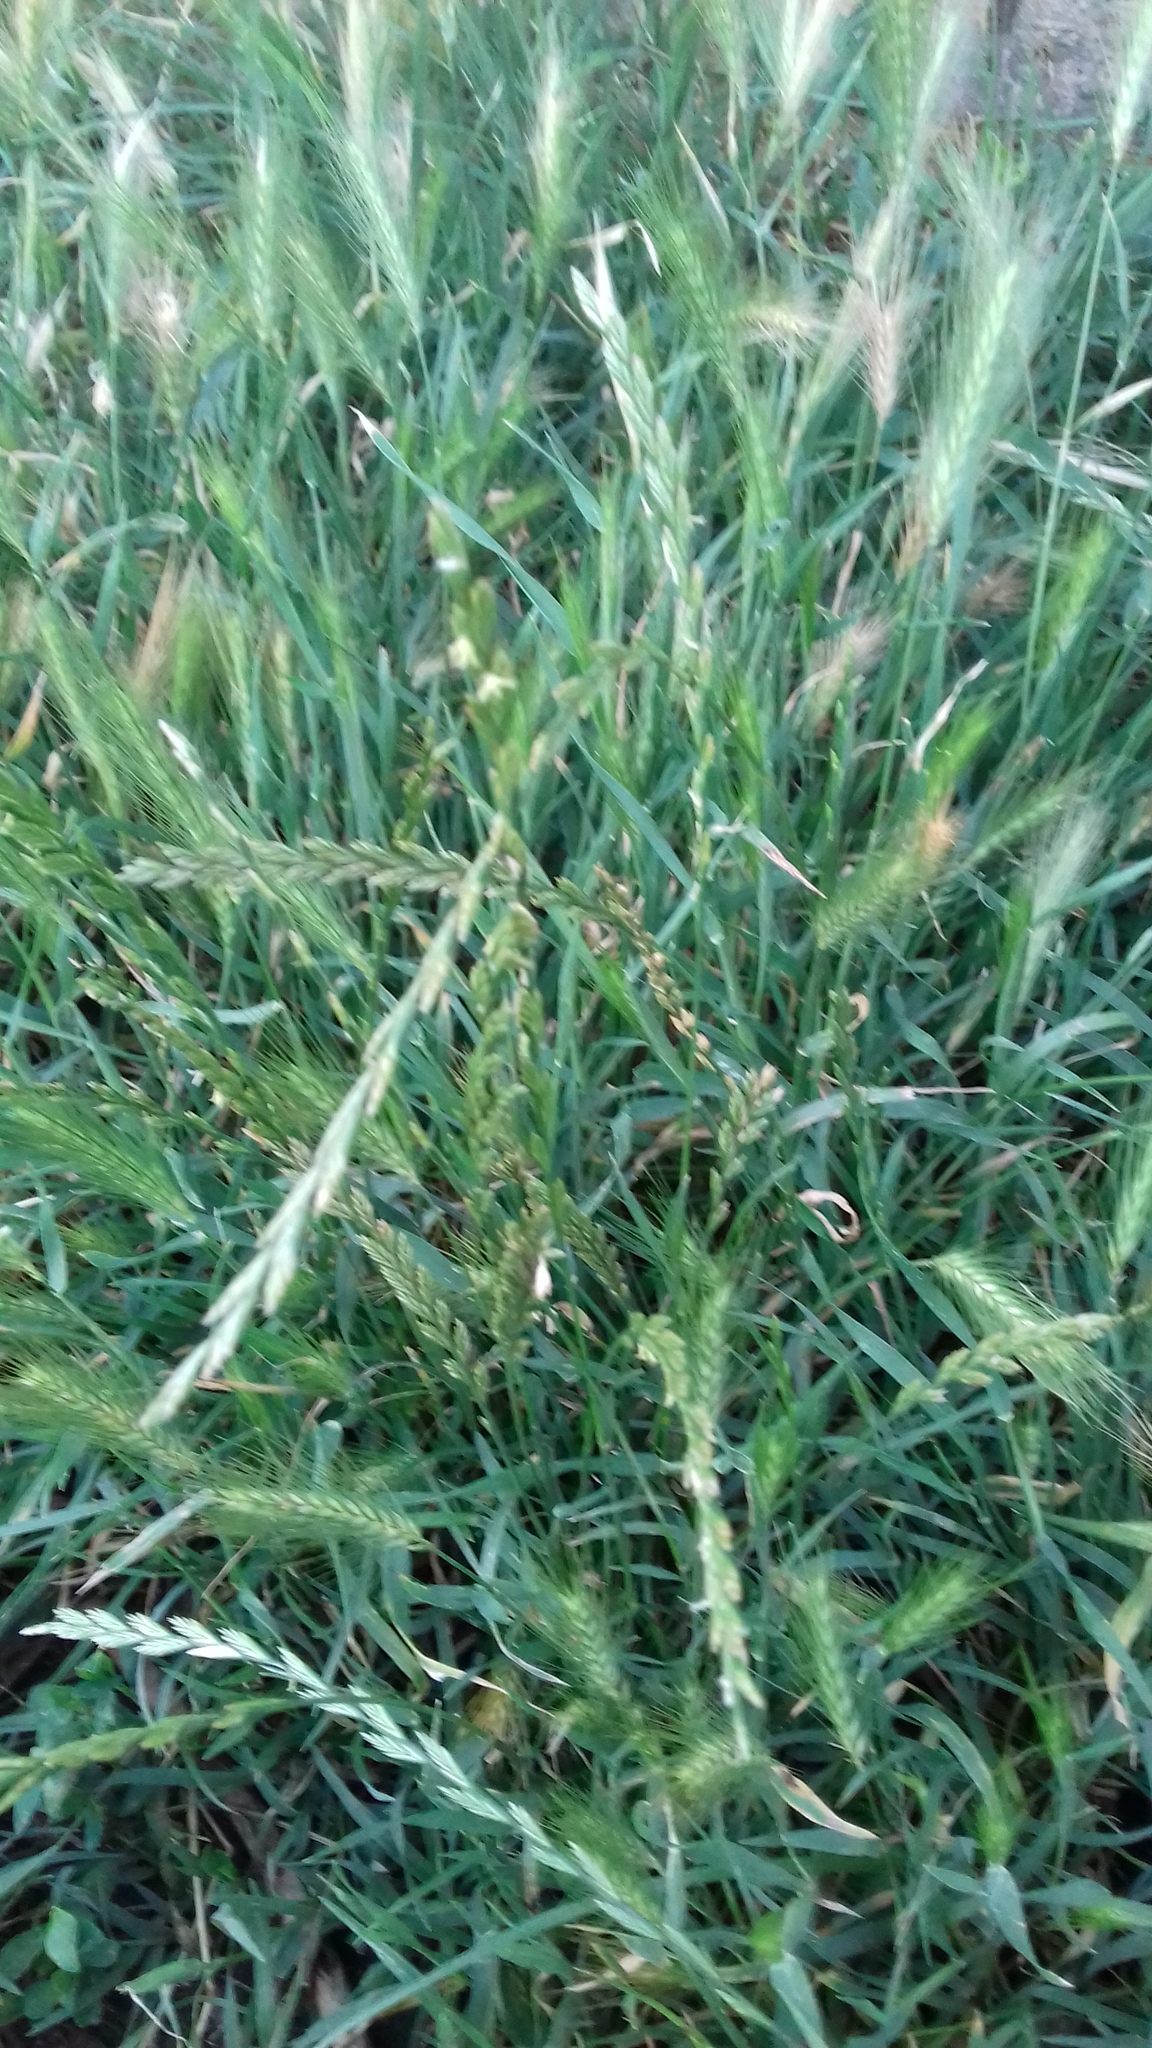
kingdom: Plantae
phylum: Tracheophyta
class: Liliopsida
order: Poales
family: Poaceae
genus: Lolium
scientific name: Lolium perenne
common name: Perennial ryegrass
